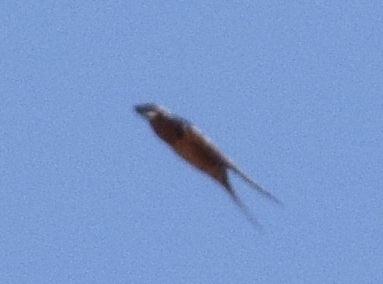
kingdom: Animalia
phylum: Chordata
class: Aves
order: Passeriformes
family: Hirundinidae
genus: Hirundo
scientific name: Hirundo rustica
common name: Barn swallow
